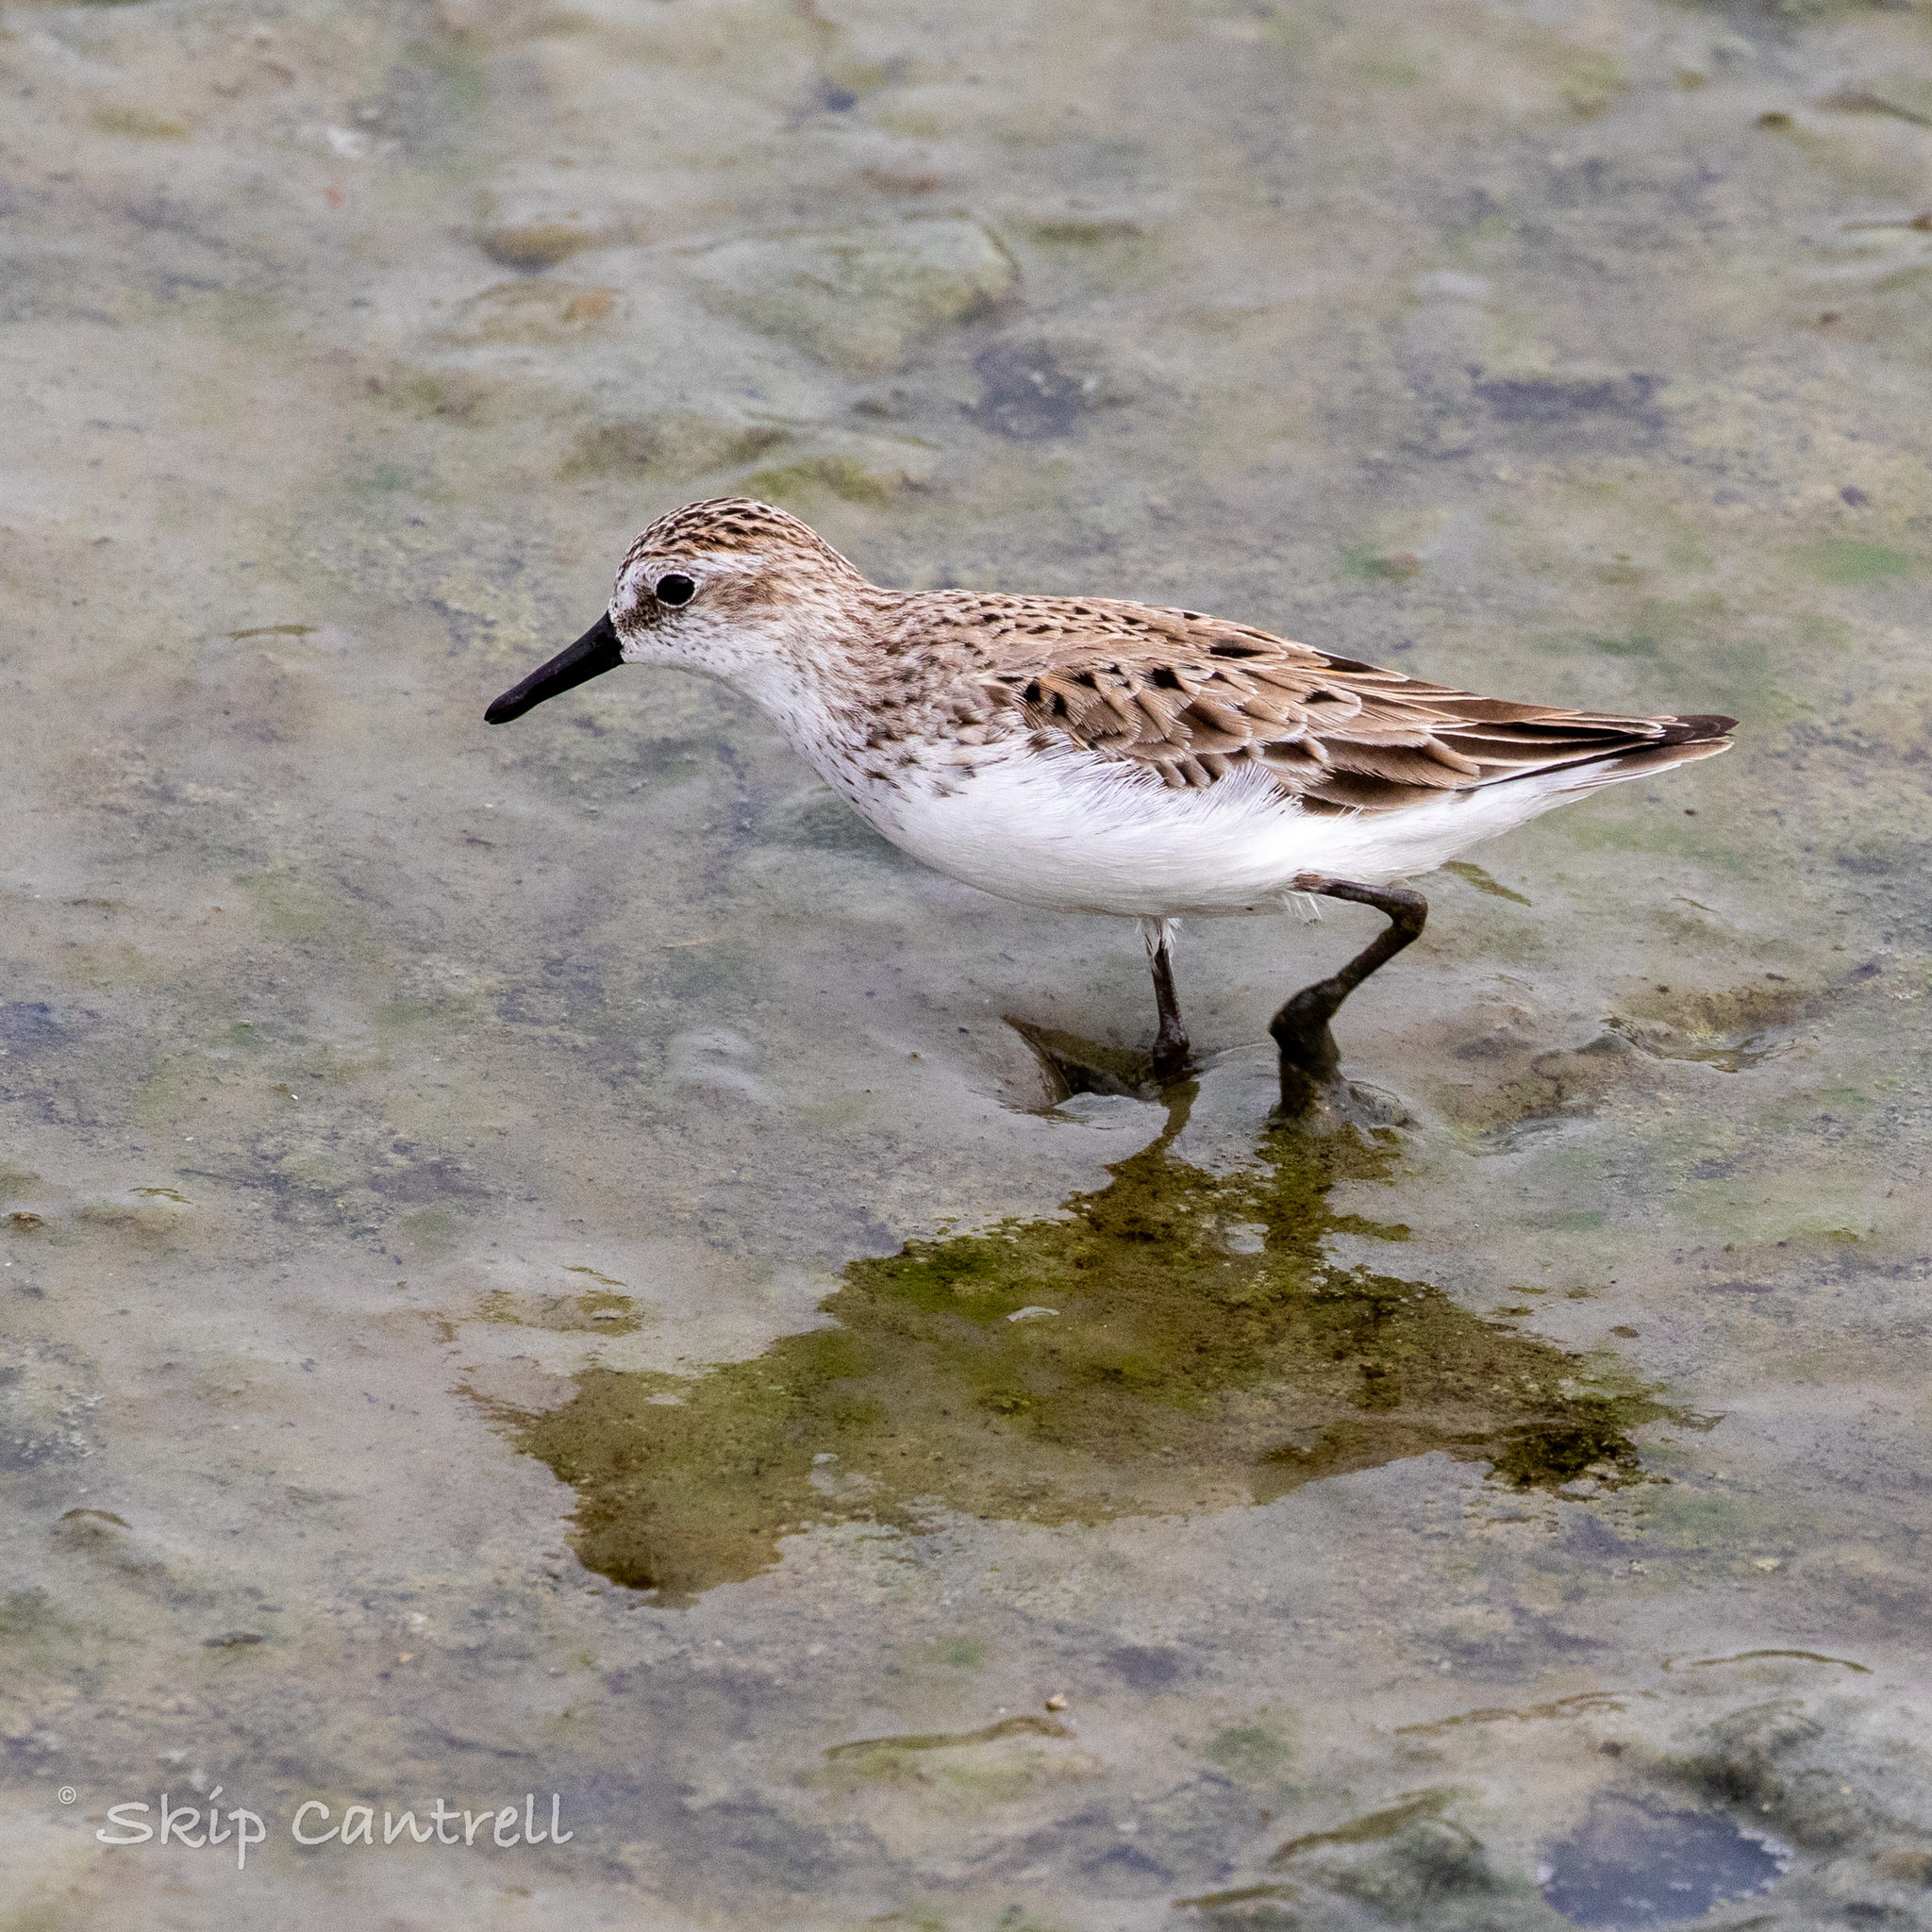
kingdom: Animalia
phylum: Chordata
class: Aves
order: Charadriiformes
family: Scolopacidae
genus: Calidris
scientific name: Calidris pusilla
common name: Semipalmated sandpiper
